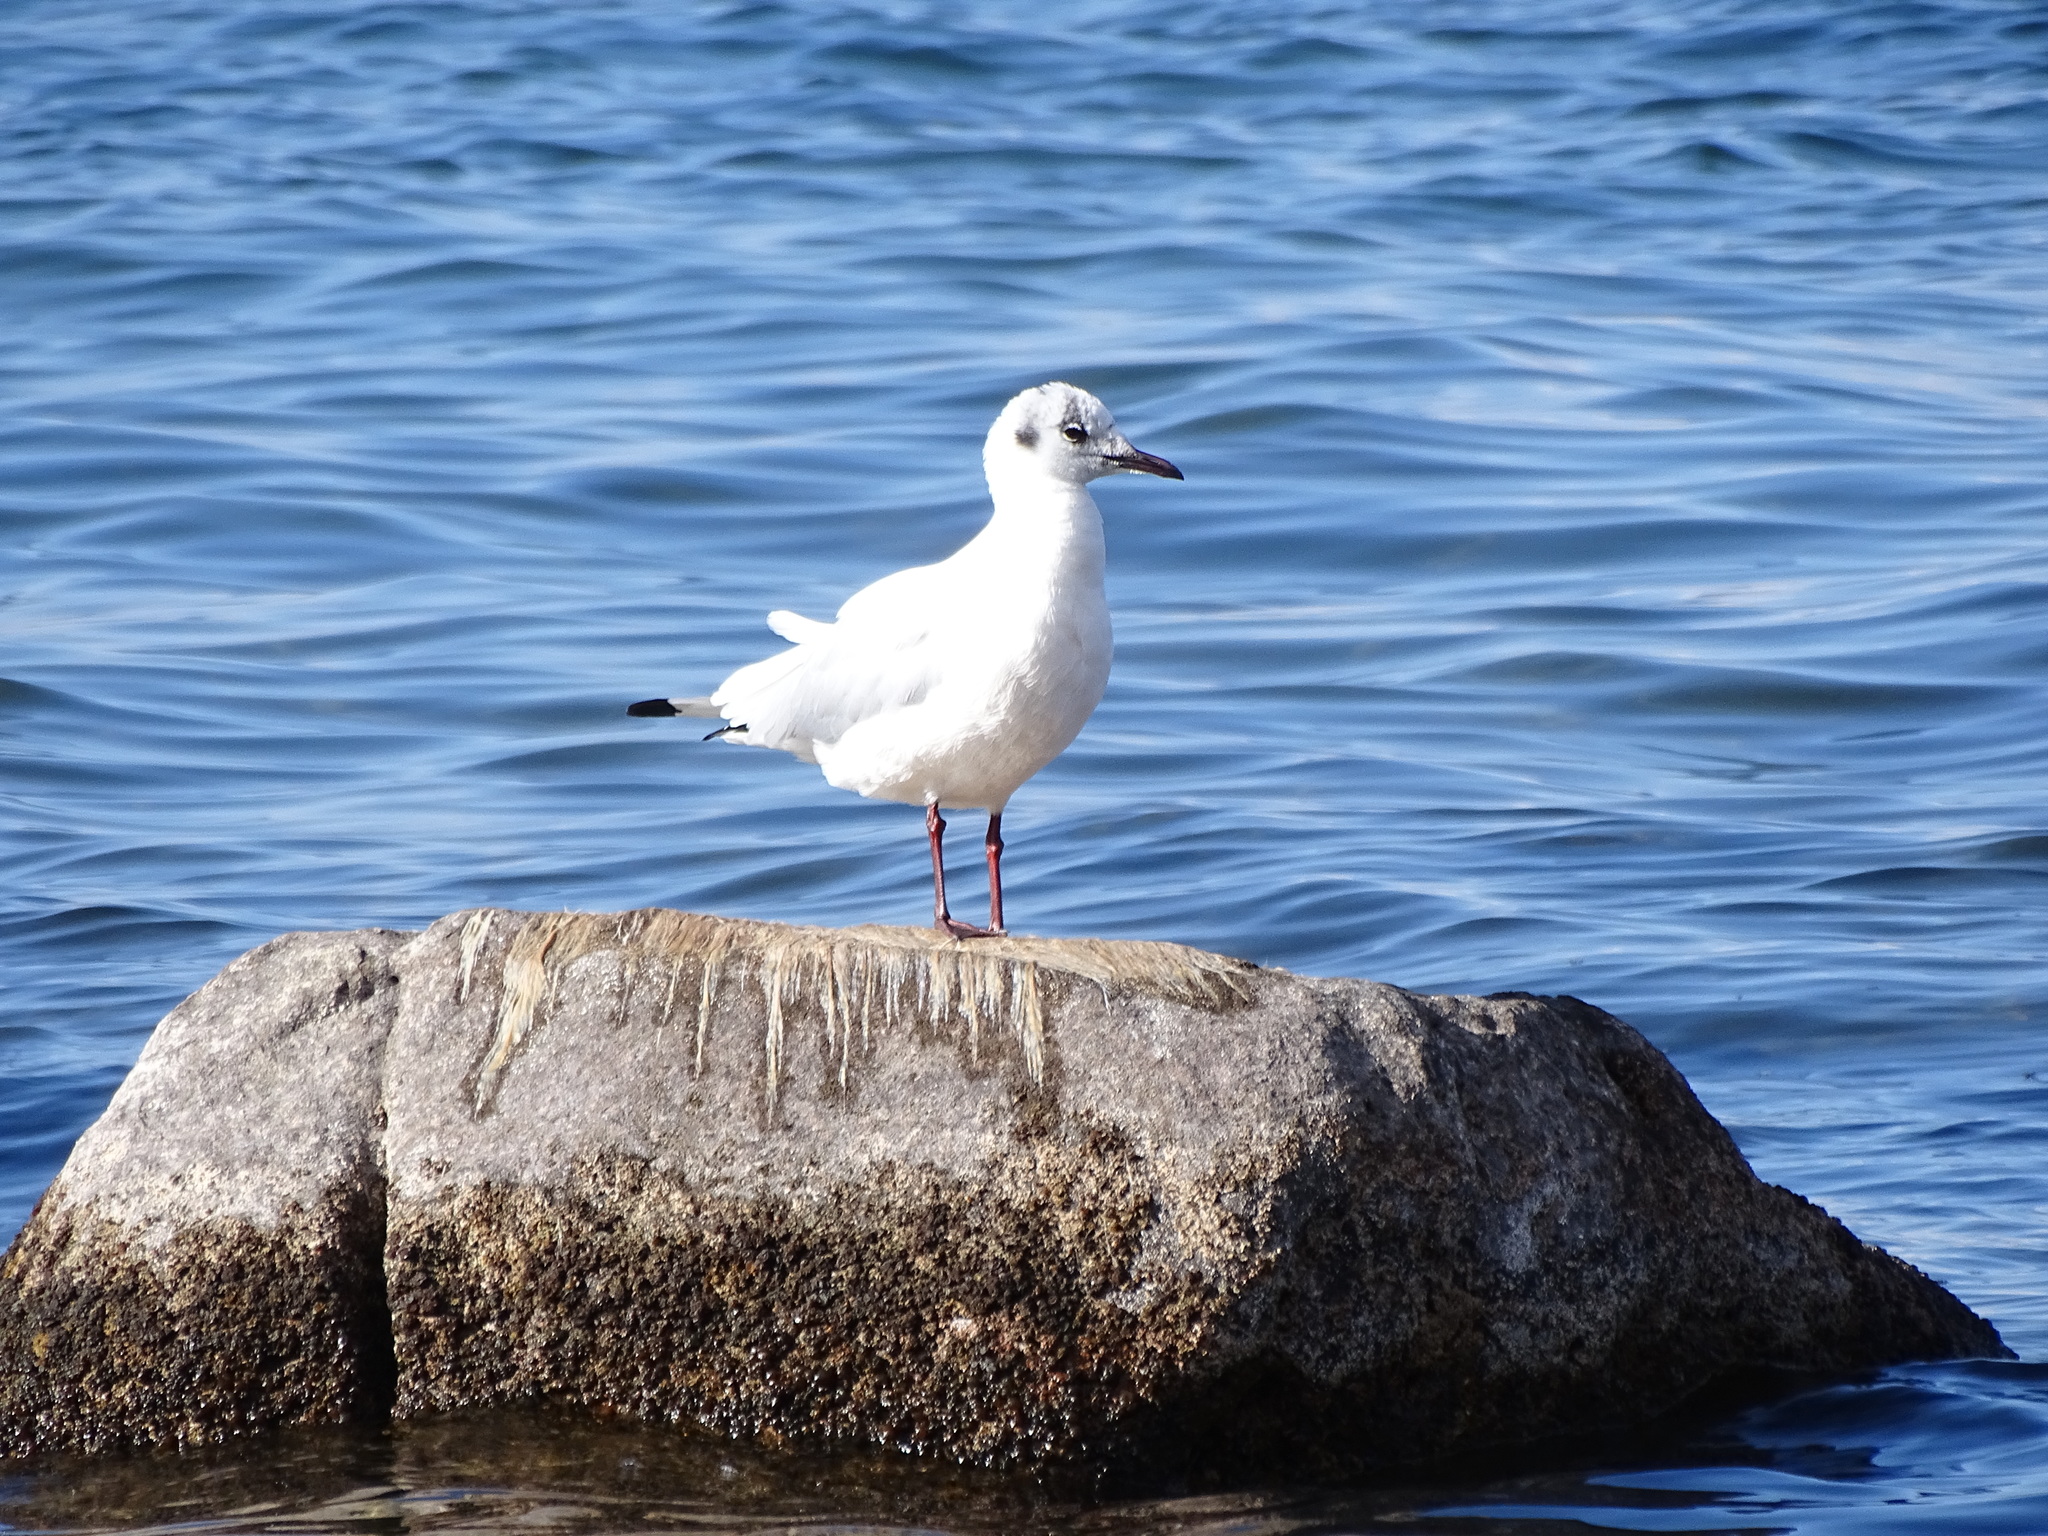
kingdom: Animalia
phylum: Chordata
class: Aves
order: Charadriiformes
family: Laridae
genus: Chroicocephalus
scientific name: Chroicocephalus serranus
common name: Andean gull
